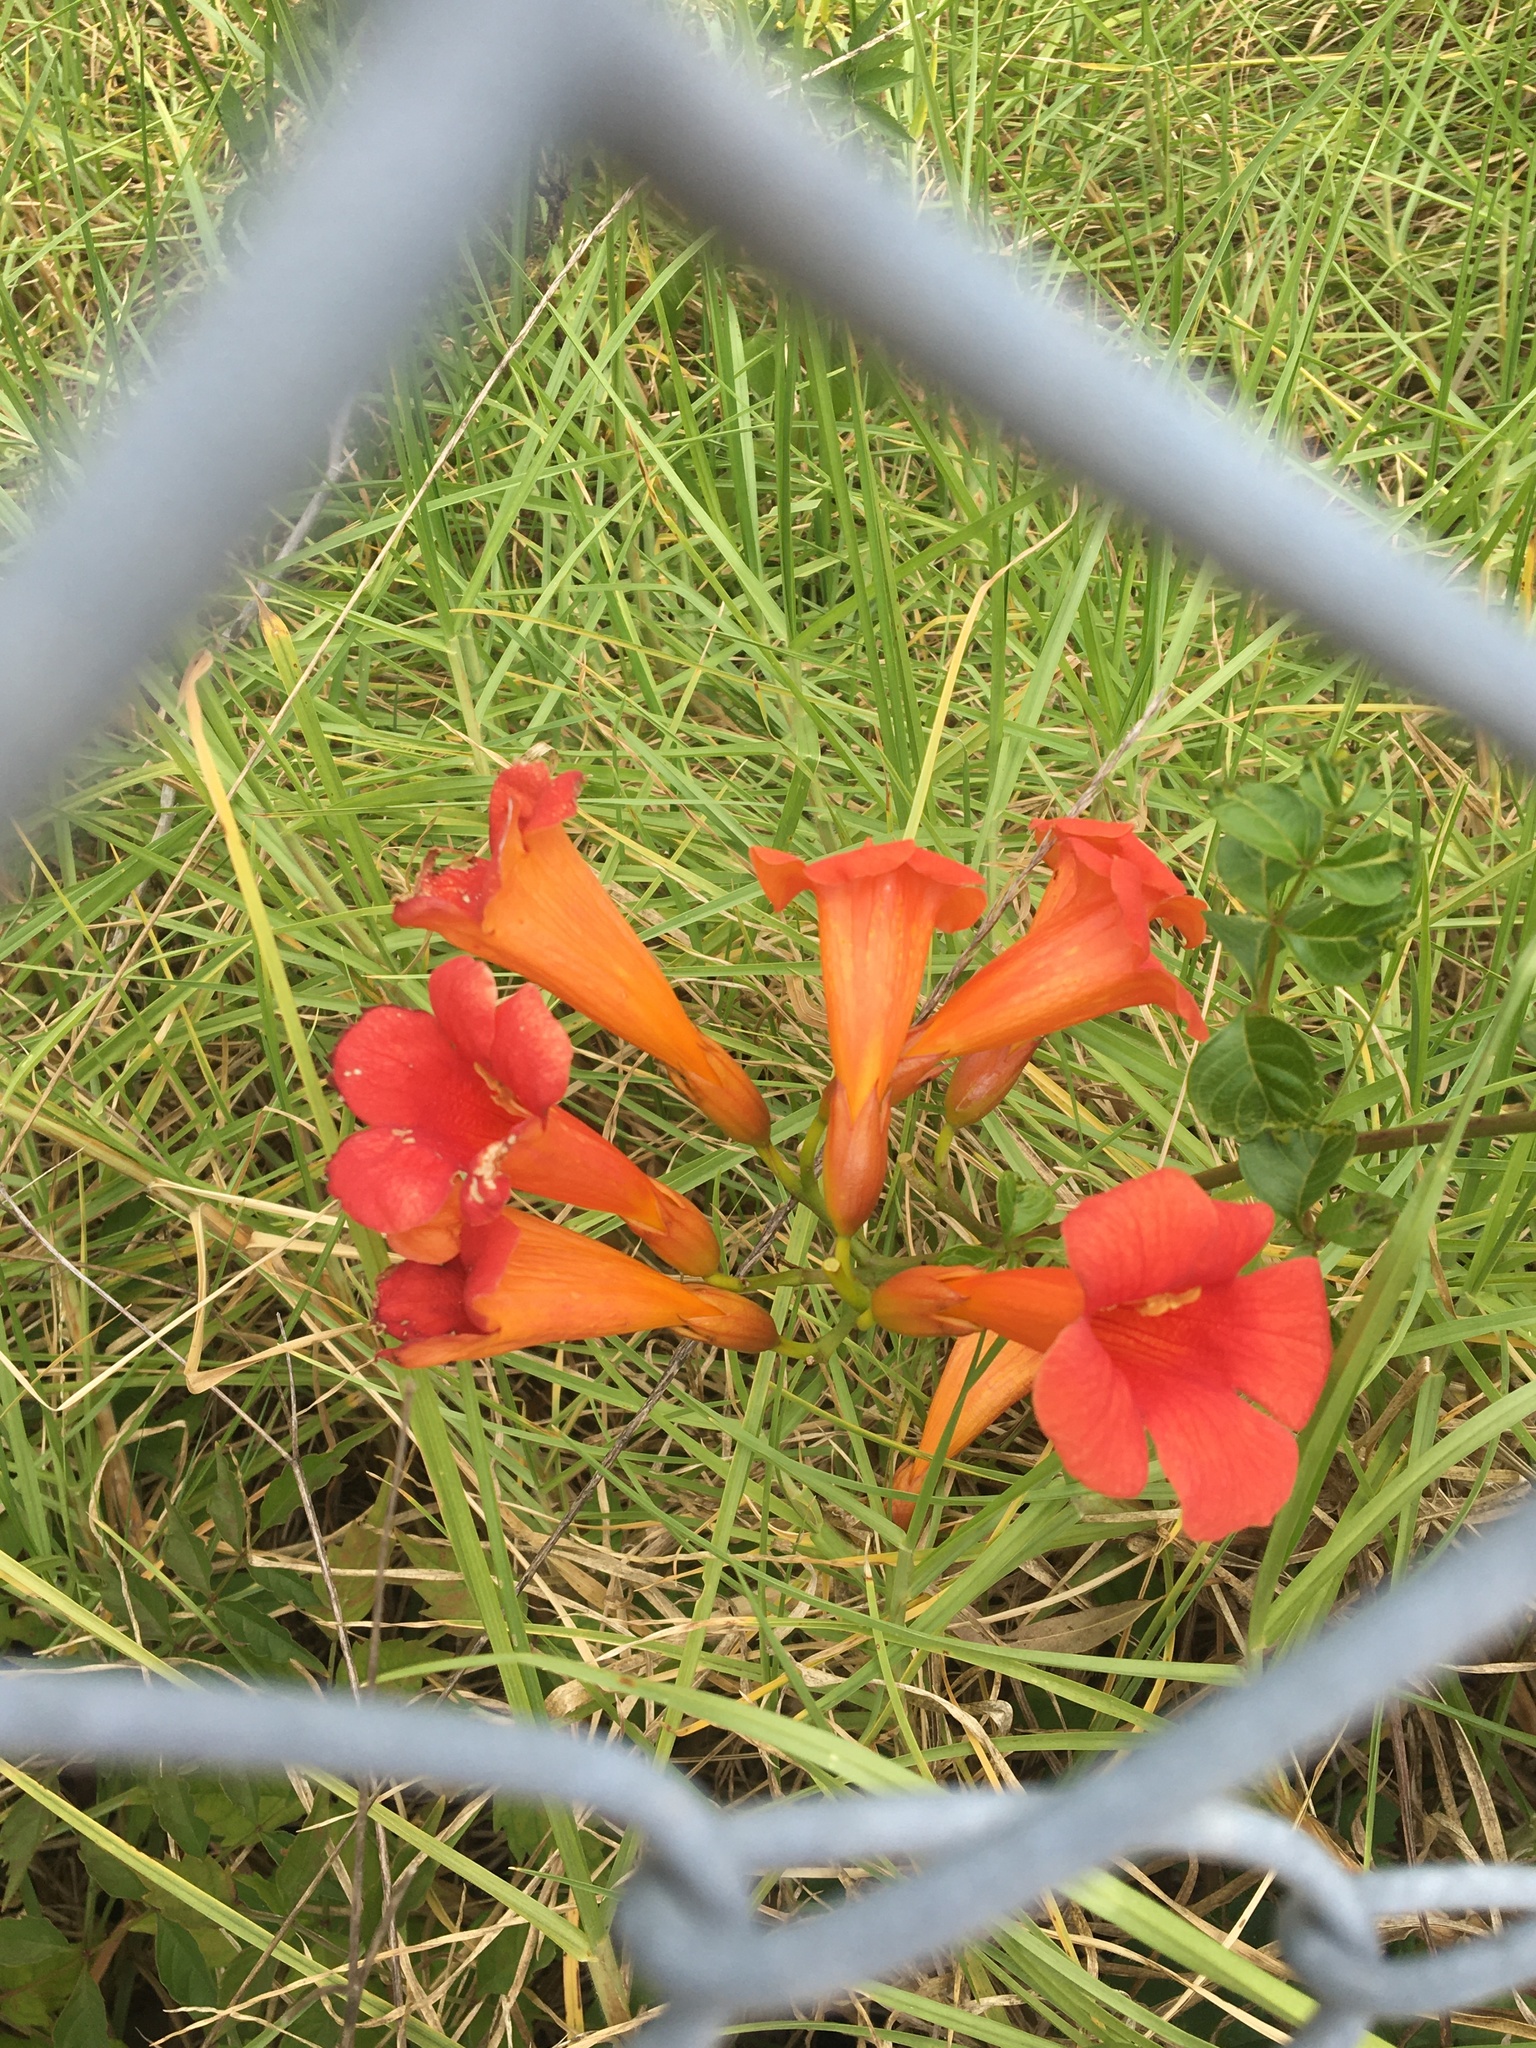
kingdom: Plantae
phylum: Tracheophyta
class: Magnoliopsida
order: Lamiales
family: Bignoniaceae
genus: Campsis
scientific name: Campsis tagliabueana
